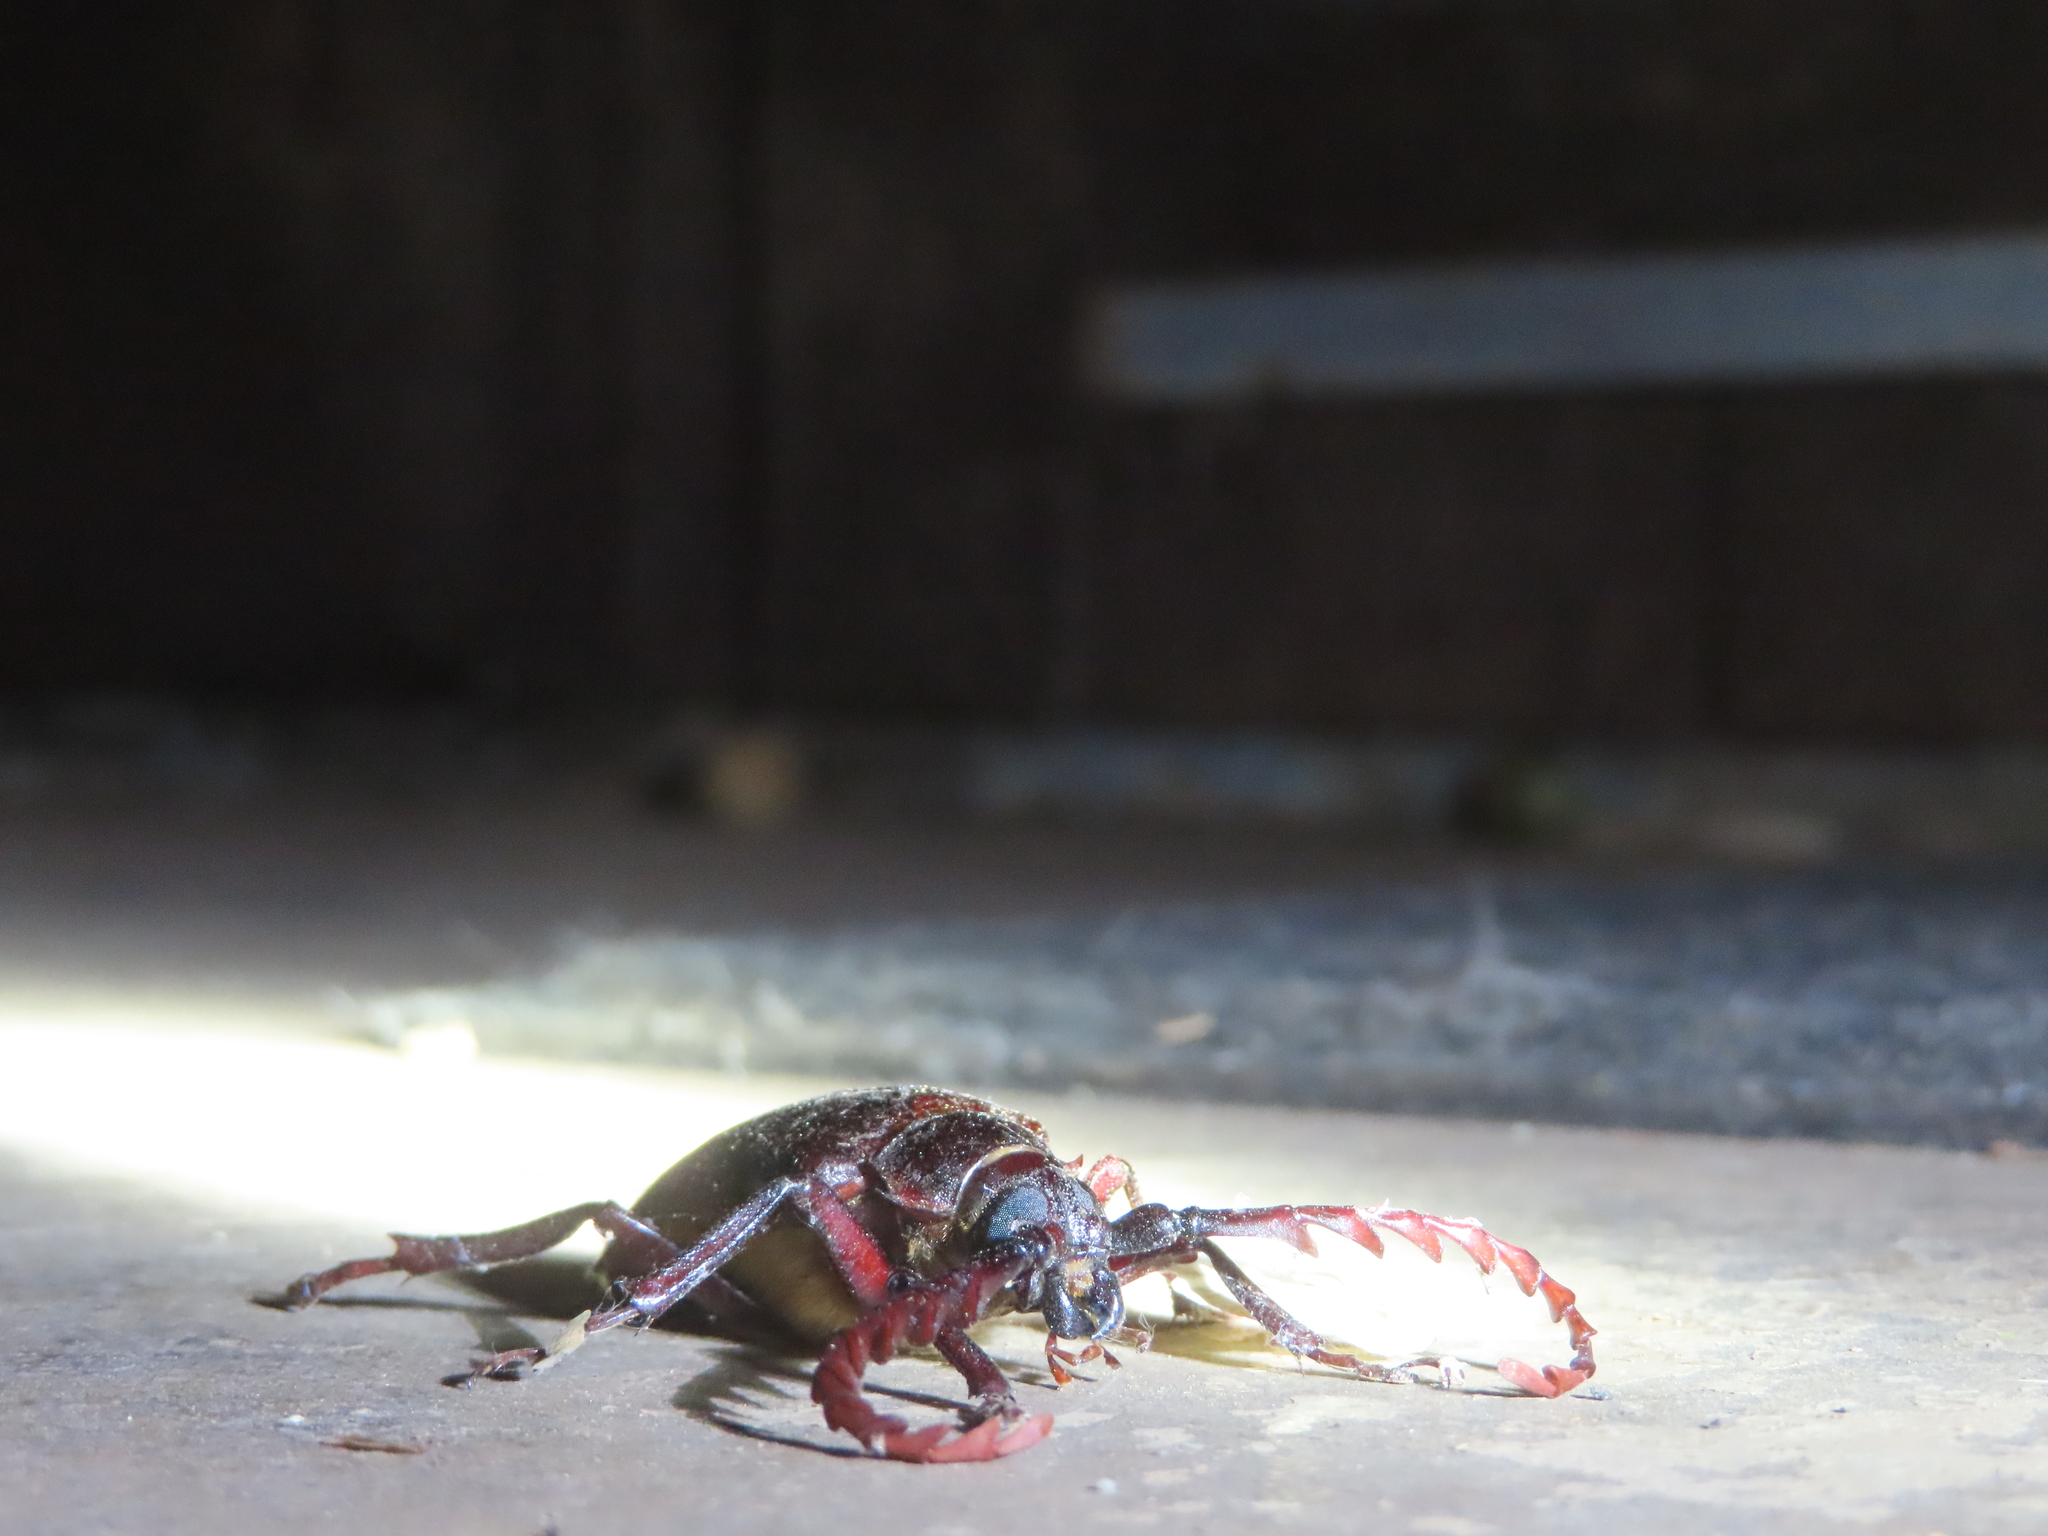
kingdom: Animalia
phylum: Arthropoda
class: Insecta
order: Coleoptera
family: Cerambycidae
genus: Prionus
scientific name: Prionus californicus
